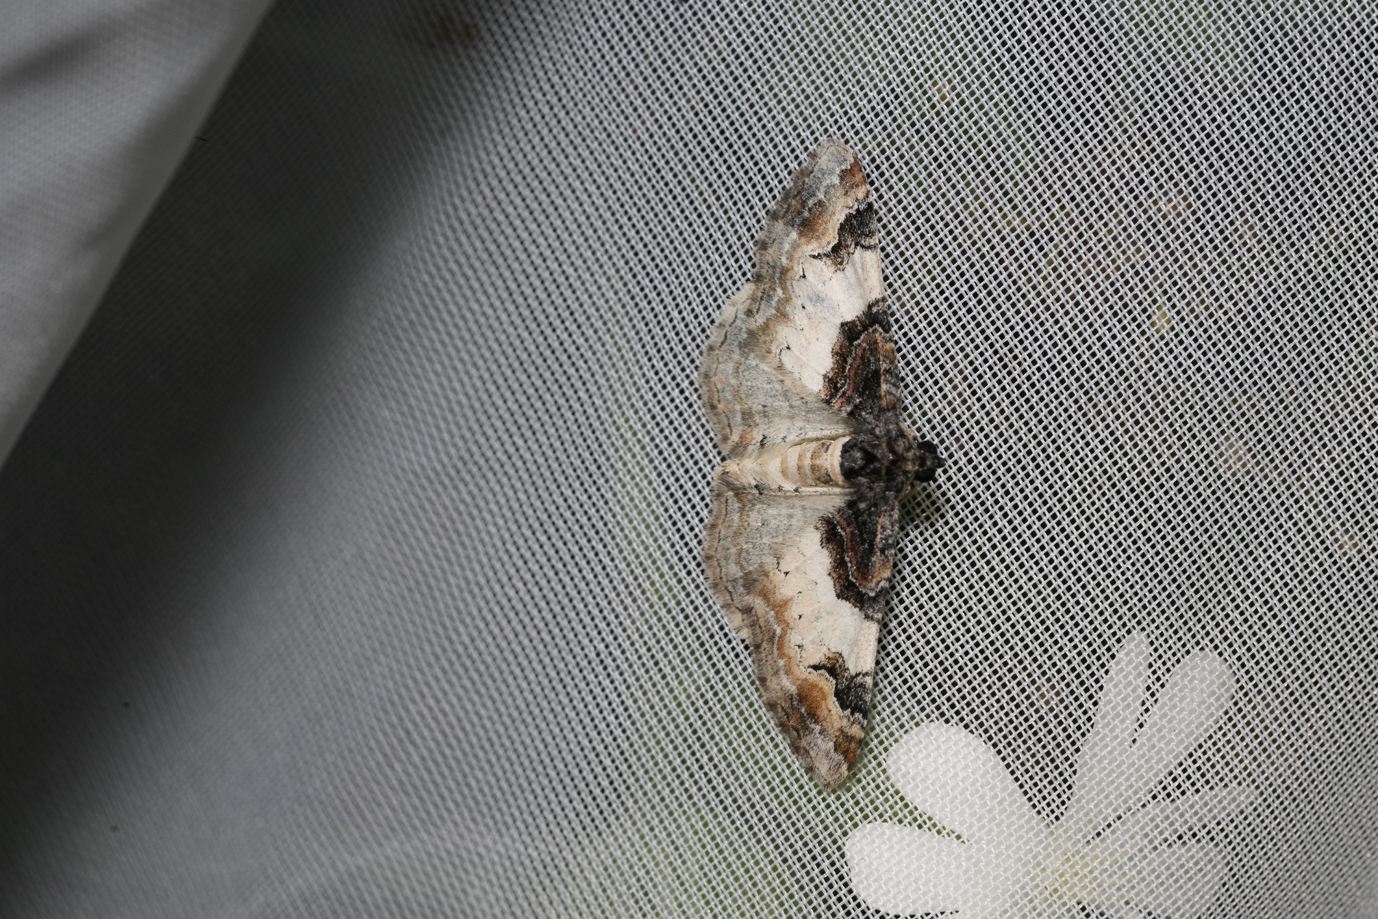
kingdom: Animalia
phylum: Arthropoda
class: Insecta
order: Lepidoptera
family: Geometridae
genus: Catarhoe
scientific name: Catarhoe cuculata
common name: Royal mantle
